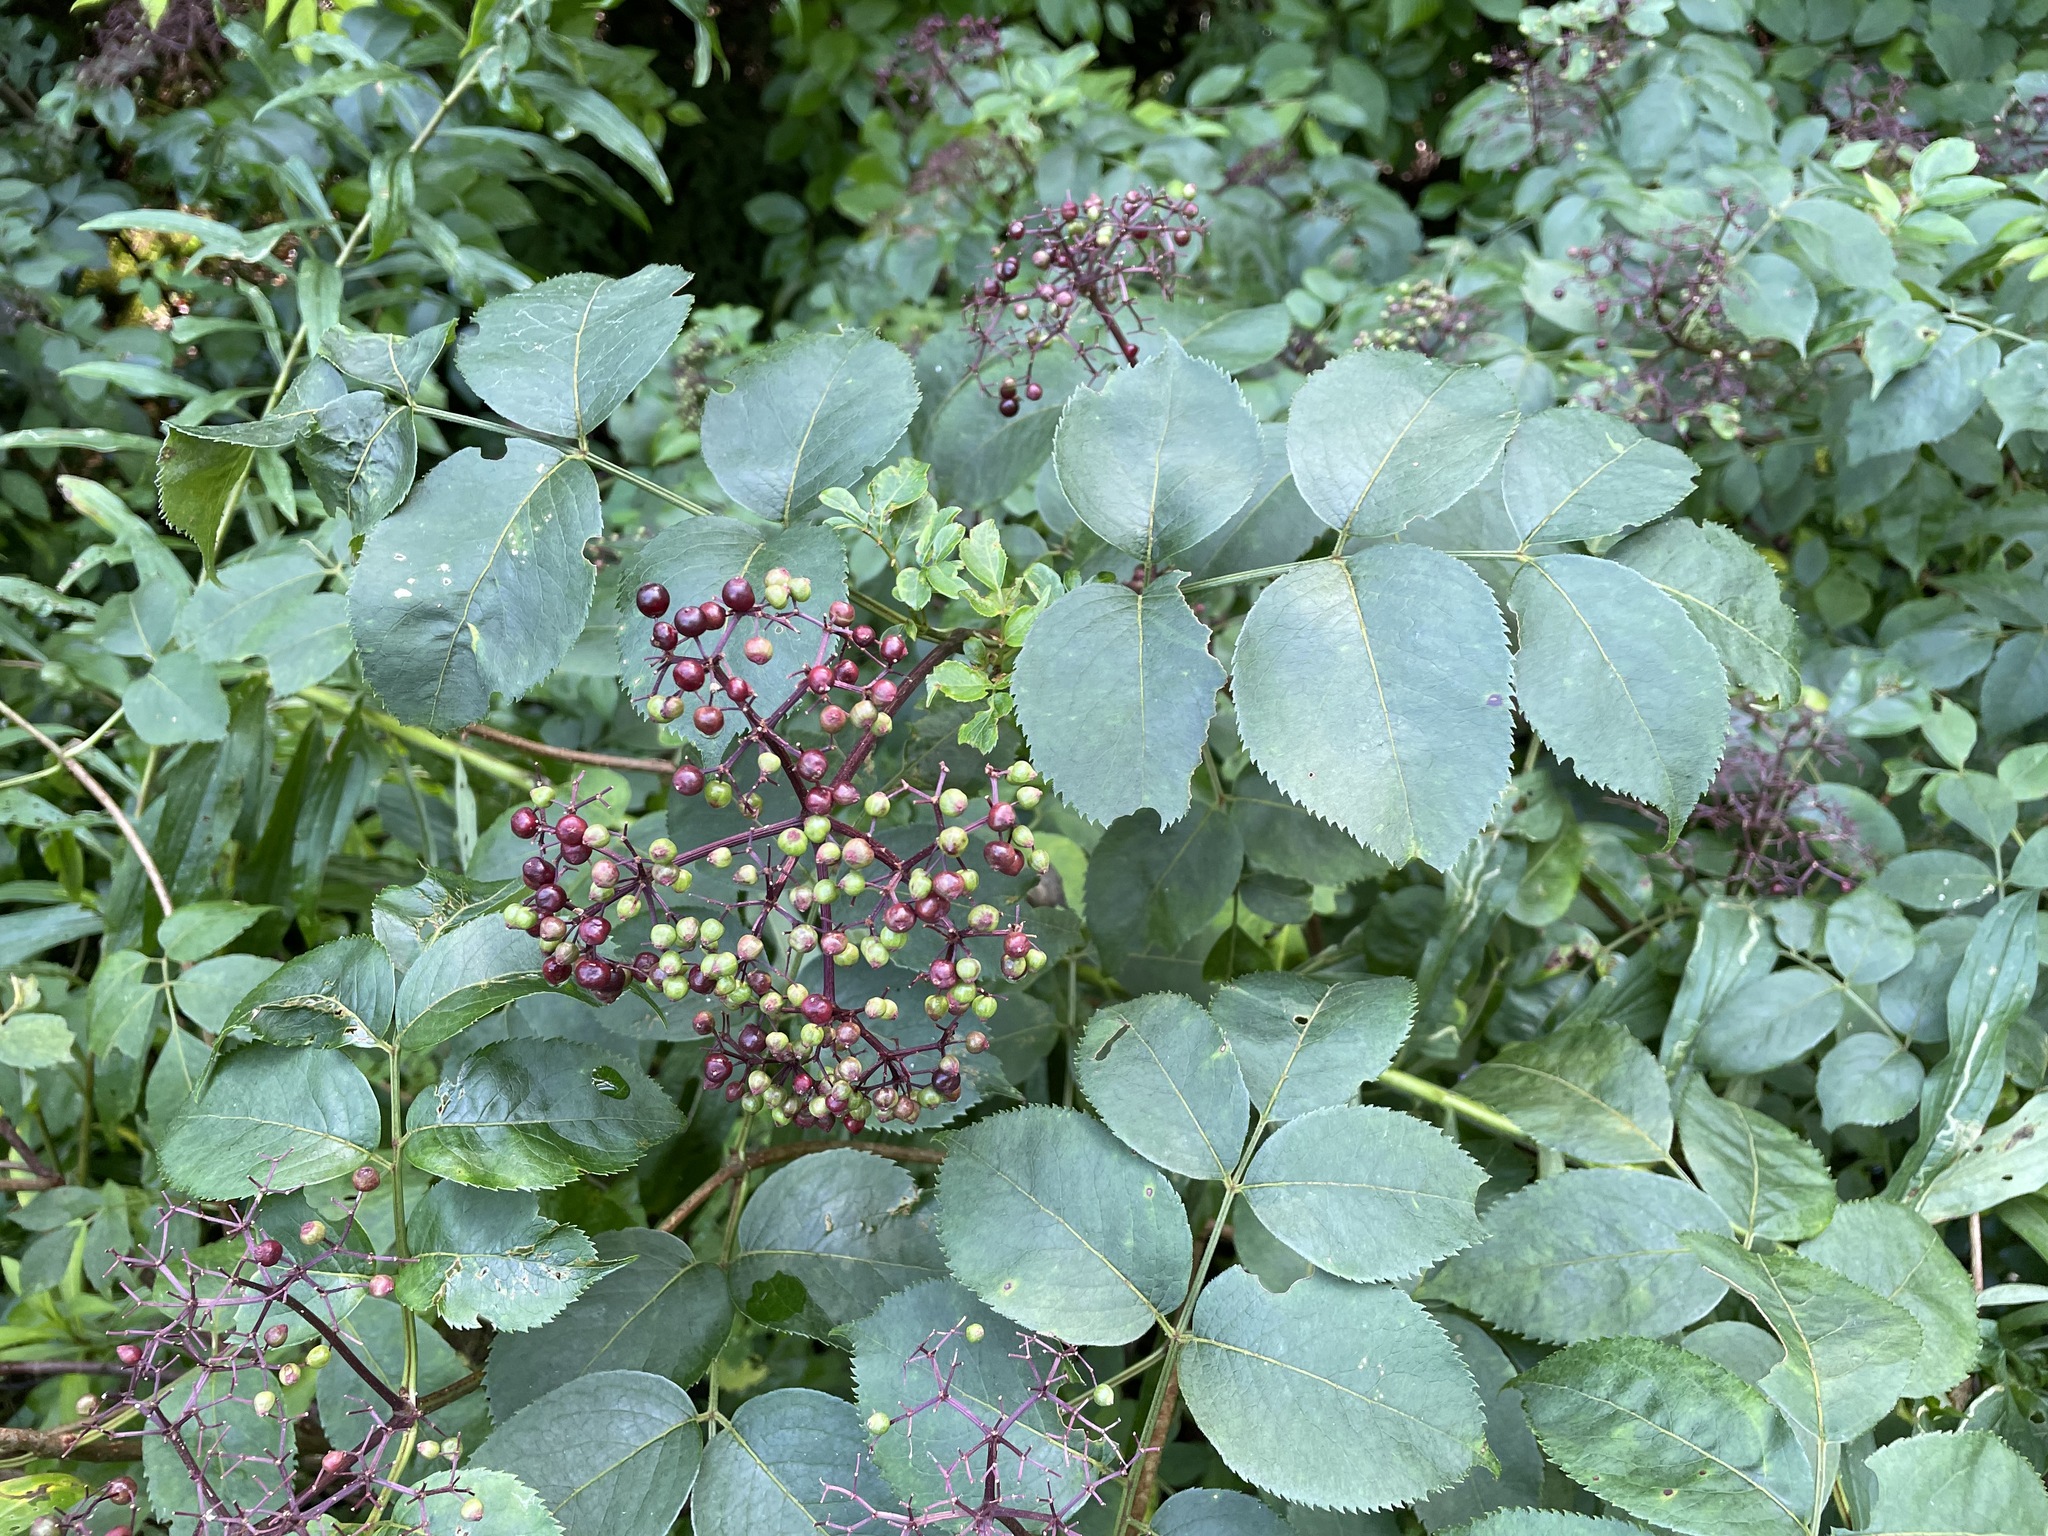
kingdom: Plantae
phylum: Tracheophyta
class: Magnoliopsida
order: Dipsacales
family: Viburnaceae
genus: Sambucus
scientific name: Sambucus canadensis
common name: American elder
